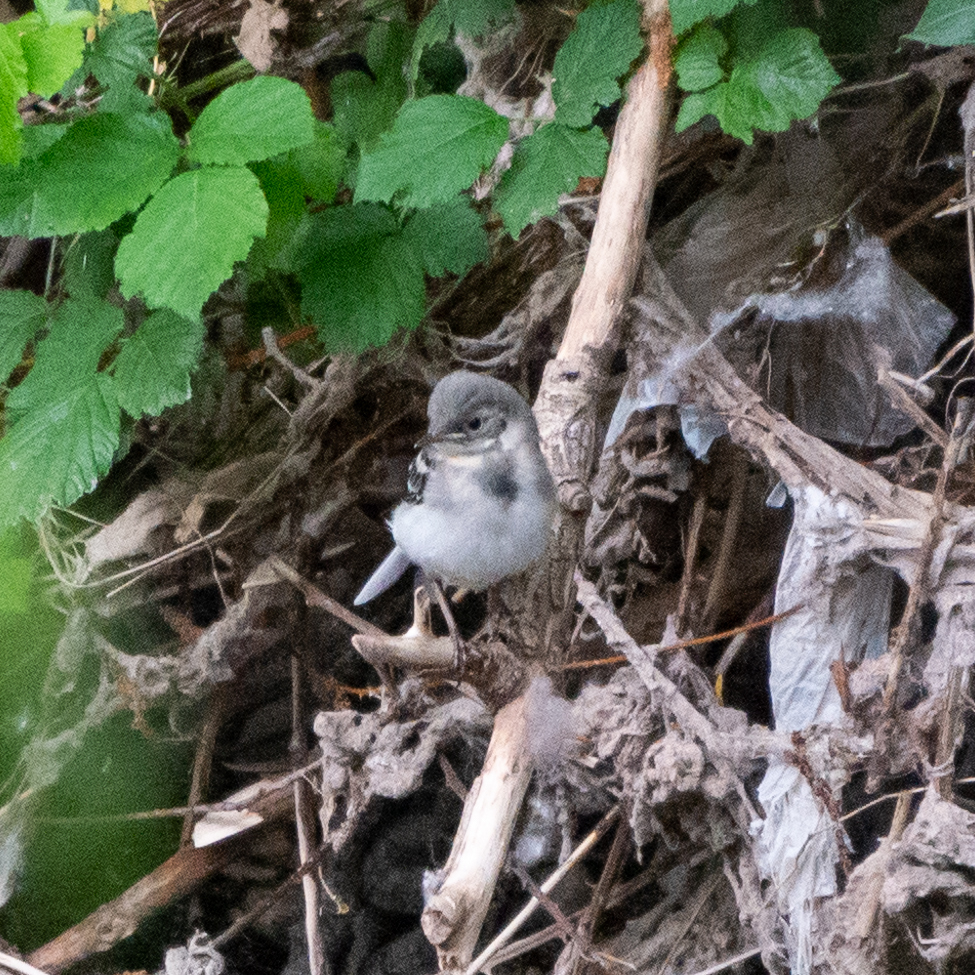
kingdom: Animalia
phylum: Chordata
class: Aves
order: Passeriformes
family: Motacillidae
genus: Motacilla
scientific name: Motacilla alba
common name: White wagtail
